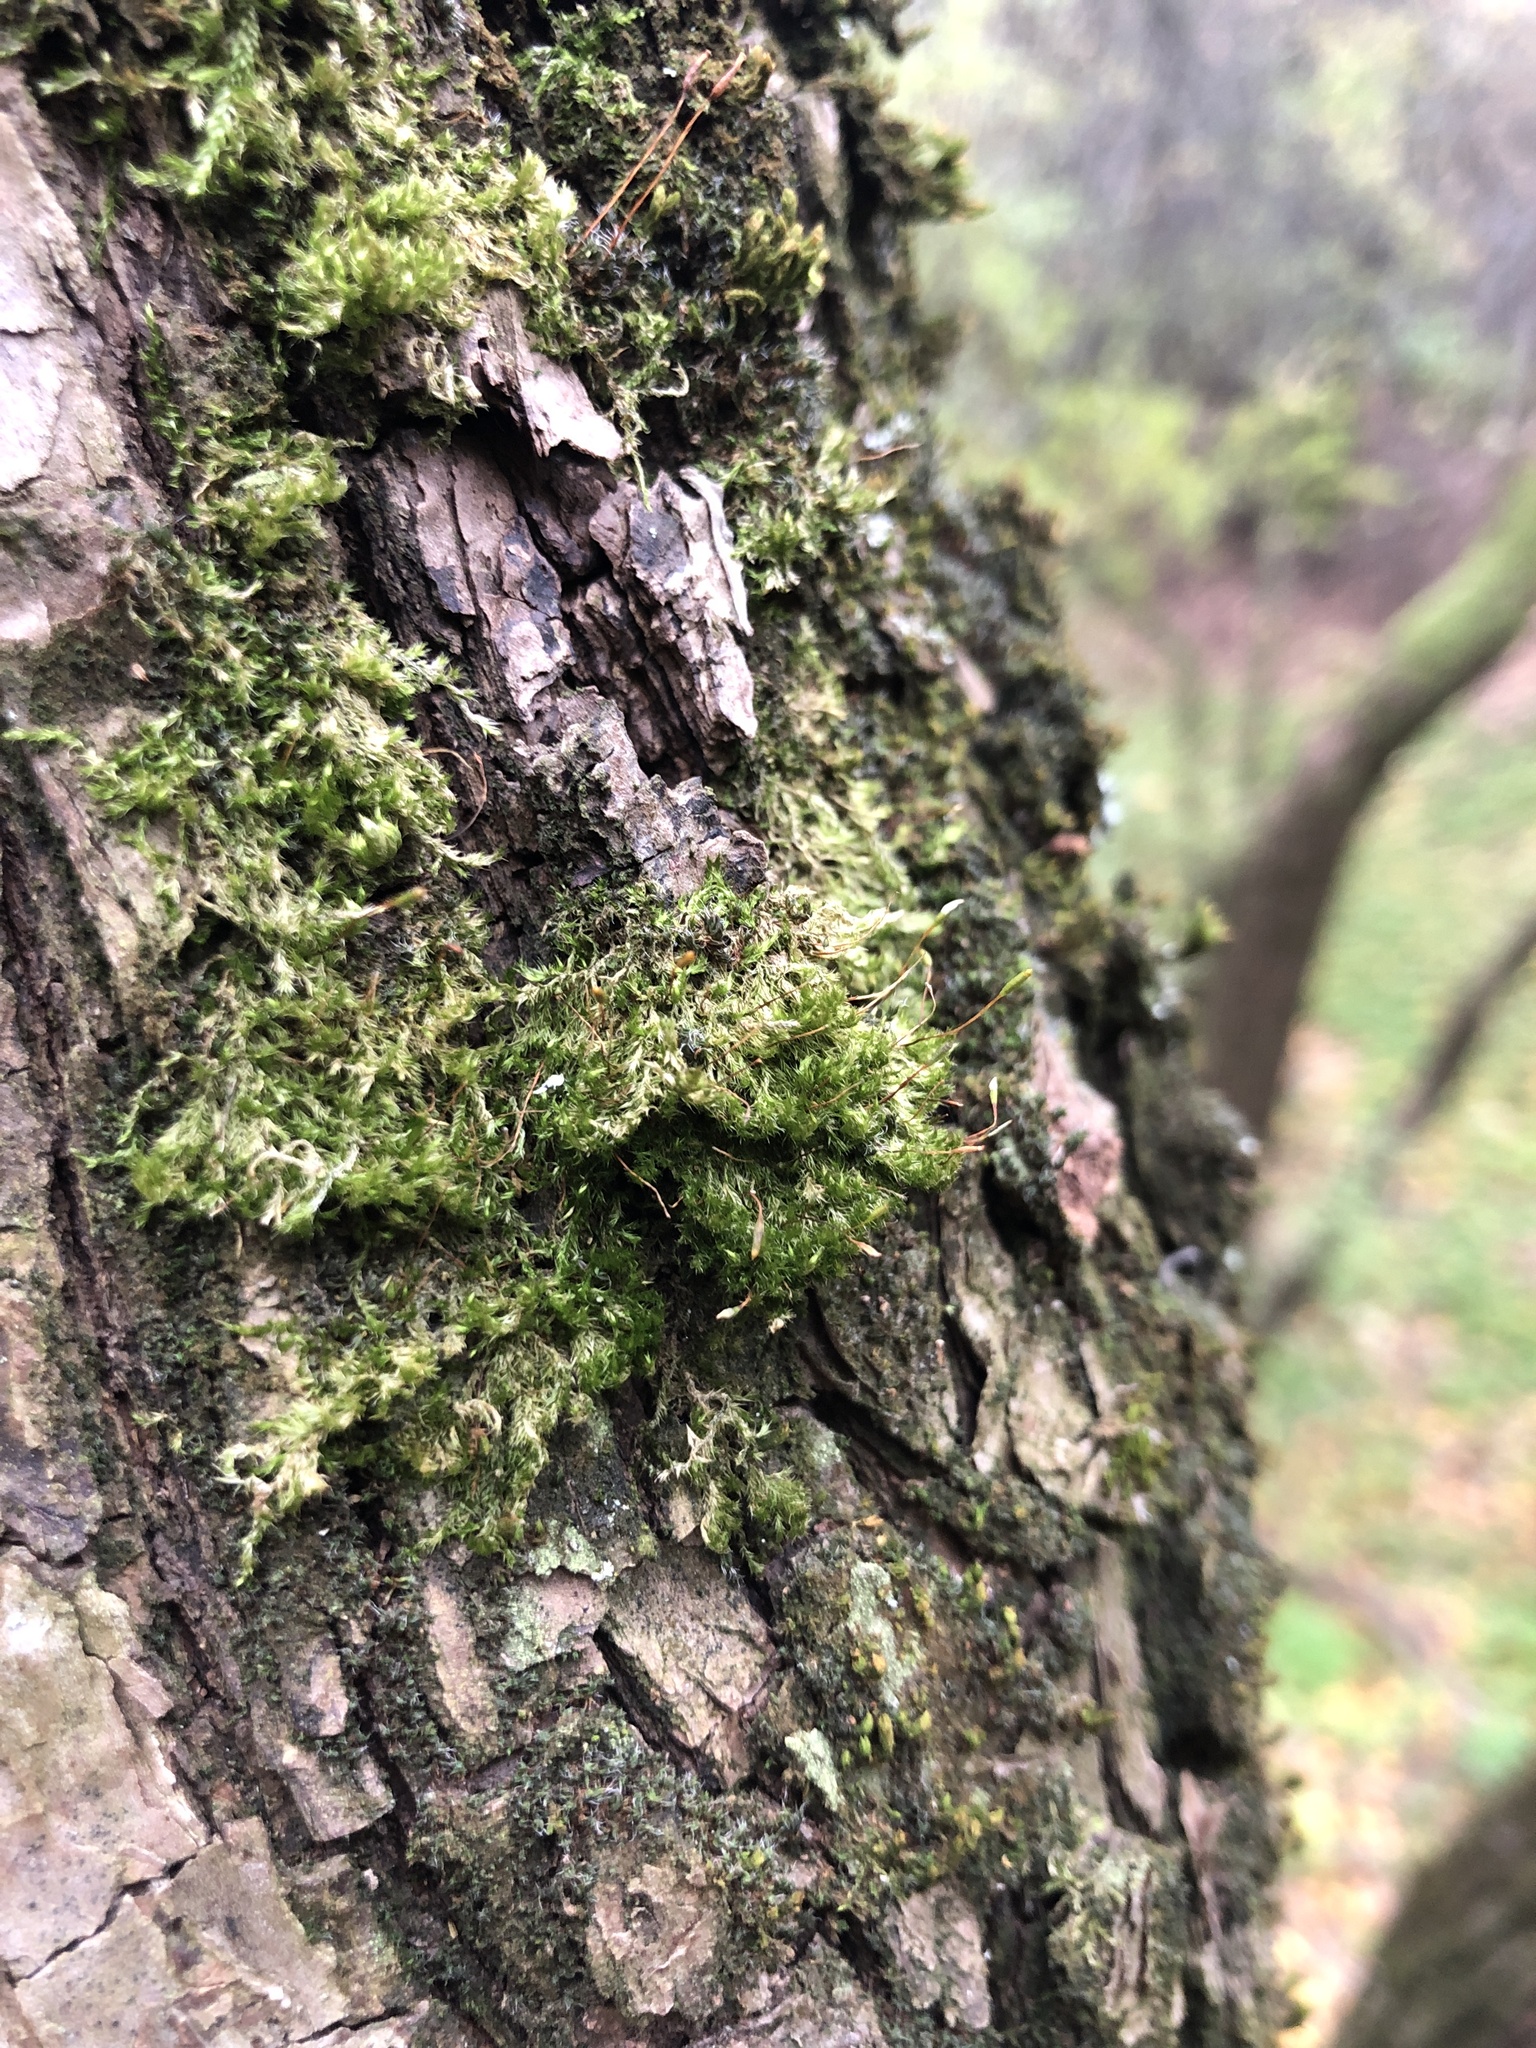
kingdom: Plantae
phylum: Bryophyta
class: Bryopsida
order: Hypnales
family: Pylaisiaceae
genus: Pylaisia
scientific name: Pylaisia polyantha
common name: Many-flowered leskea
